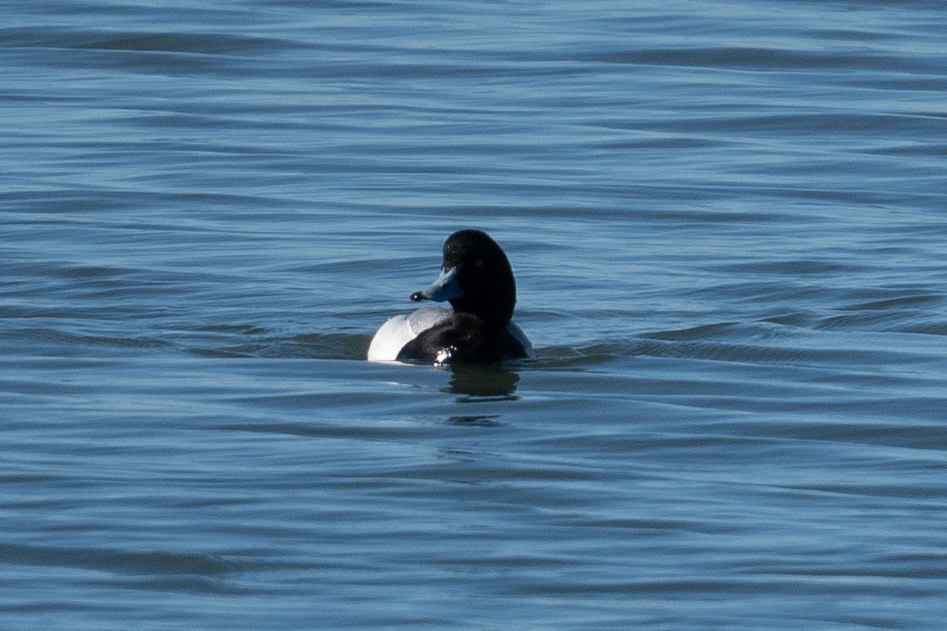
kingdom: Animalia
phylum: Chordata
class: Aves
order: Anseriformes
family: Anatidae
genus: Aythya
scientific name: Aythya marila
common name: Greater scaup
